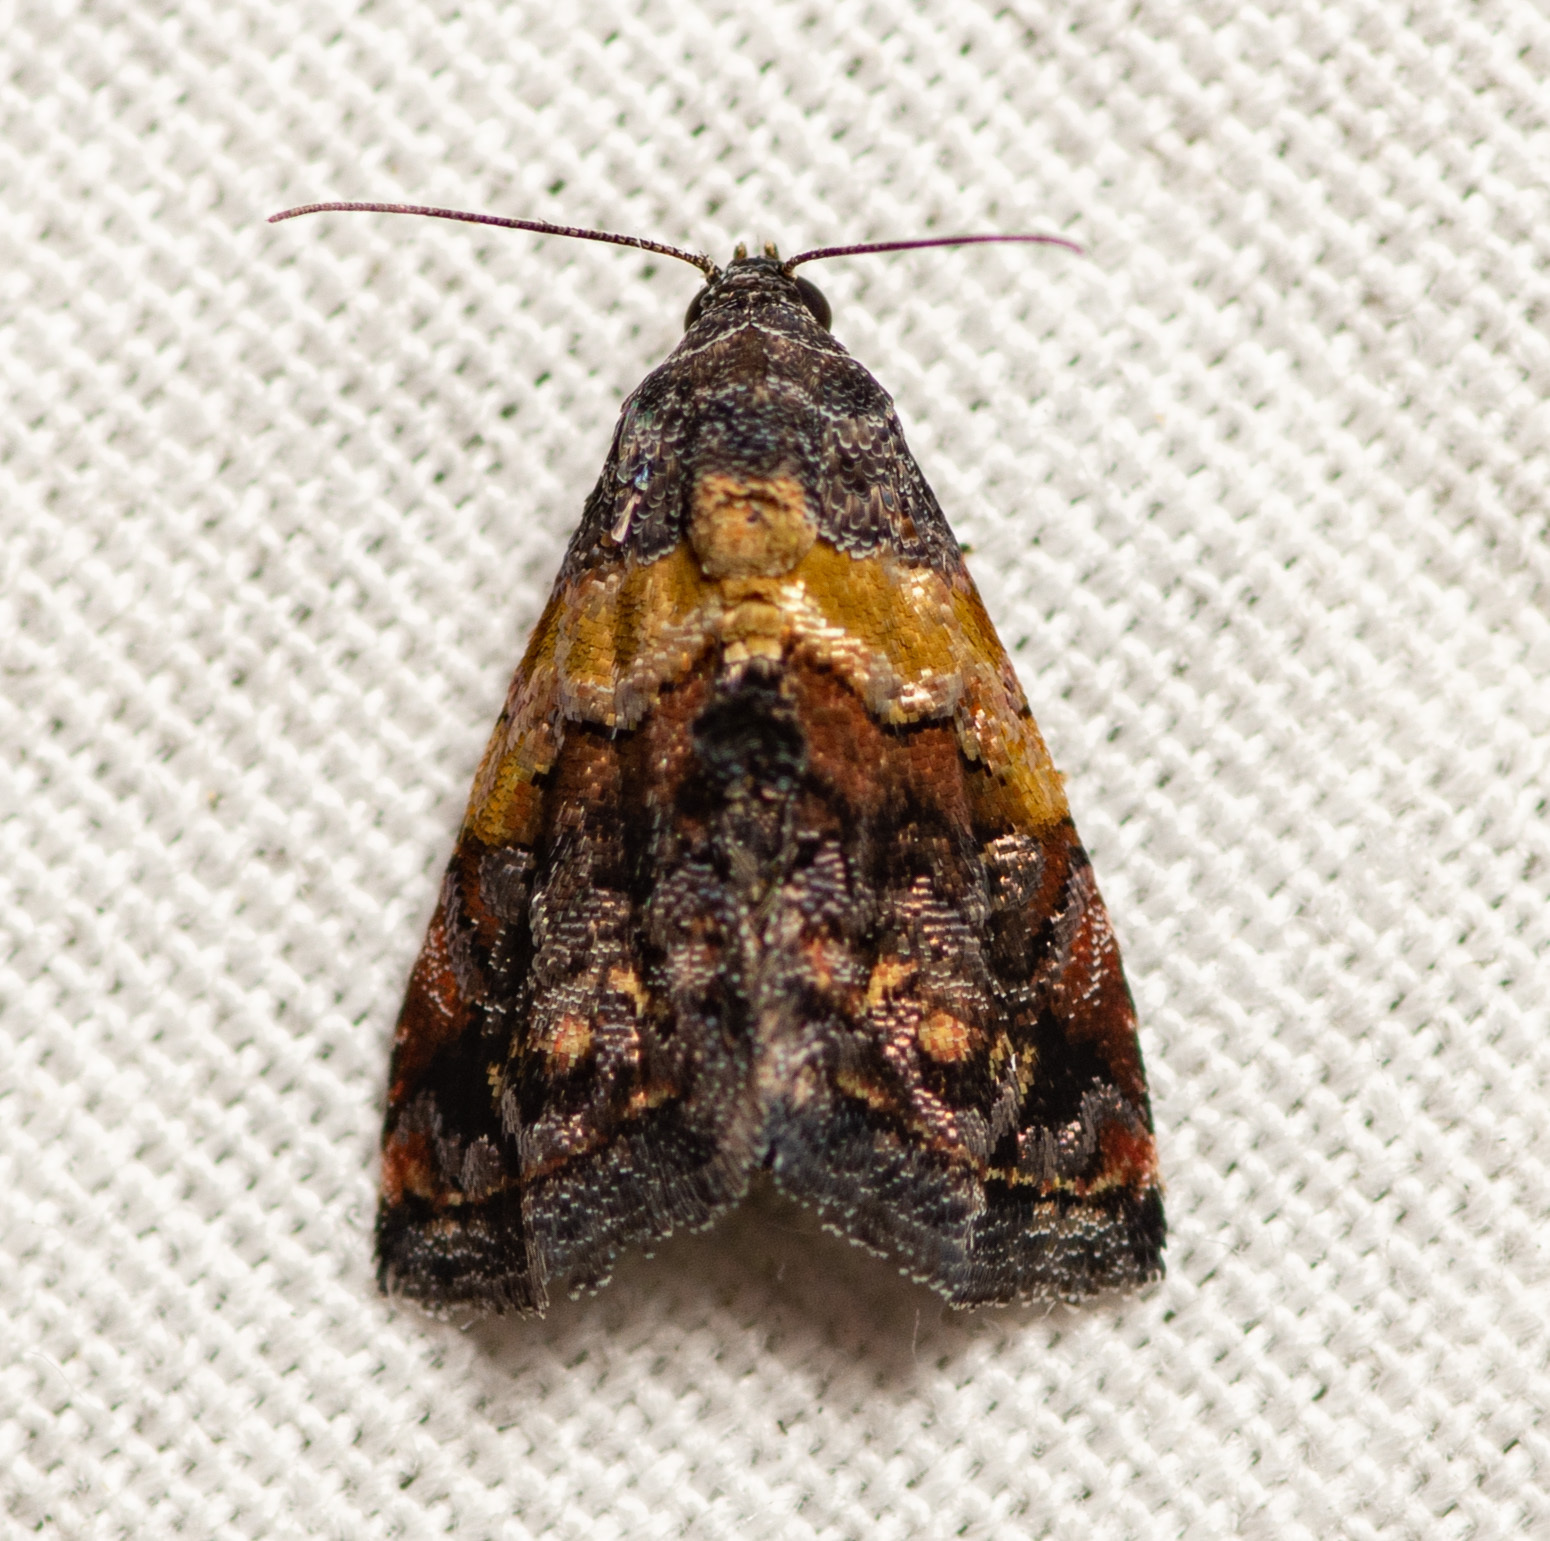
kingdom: Animalia
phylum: Arthropoda
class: Insecta
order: Lepidoptera
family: Noctuidae
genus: Tripudia
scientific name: Tripudia flavofasciata
